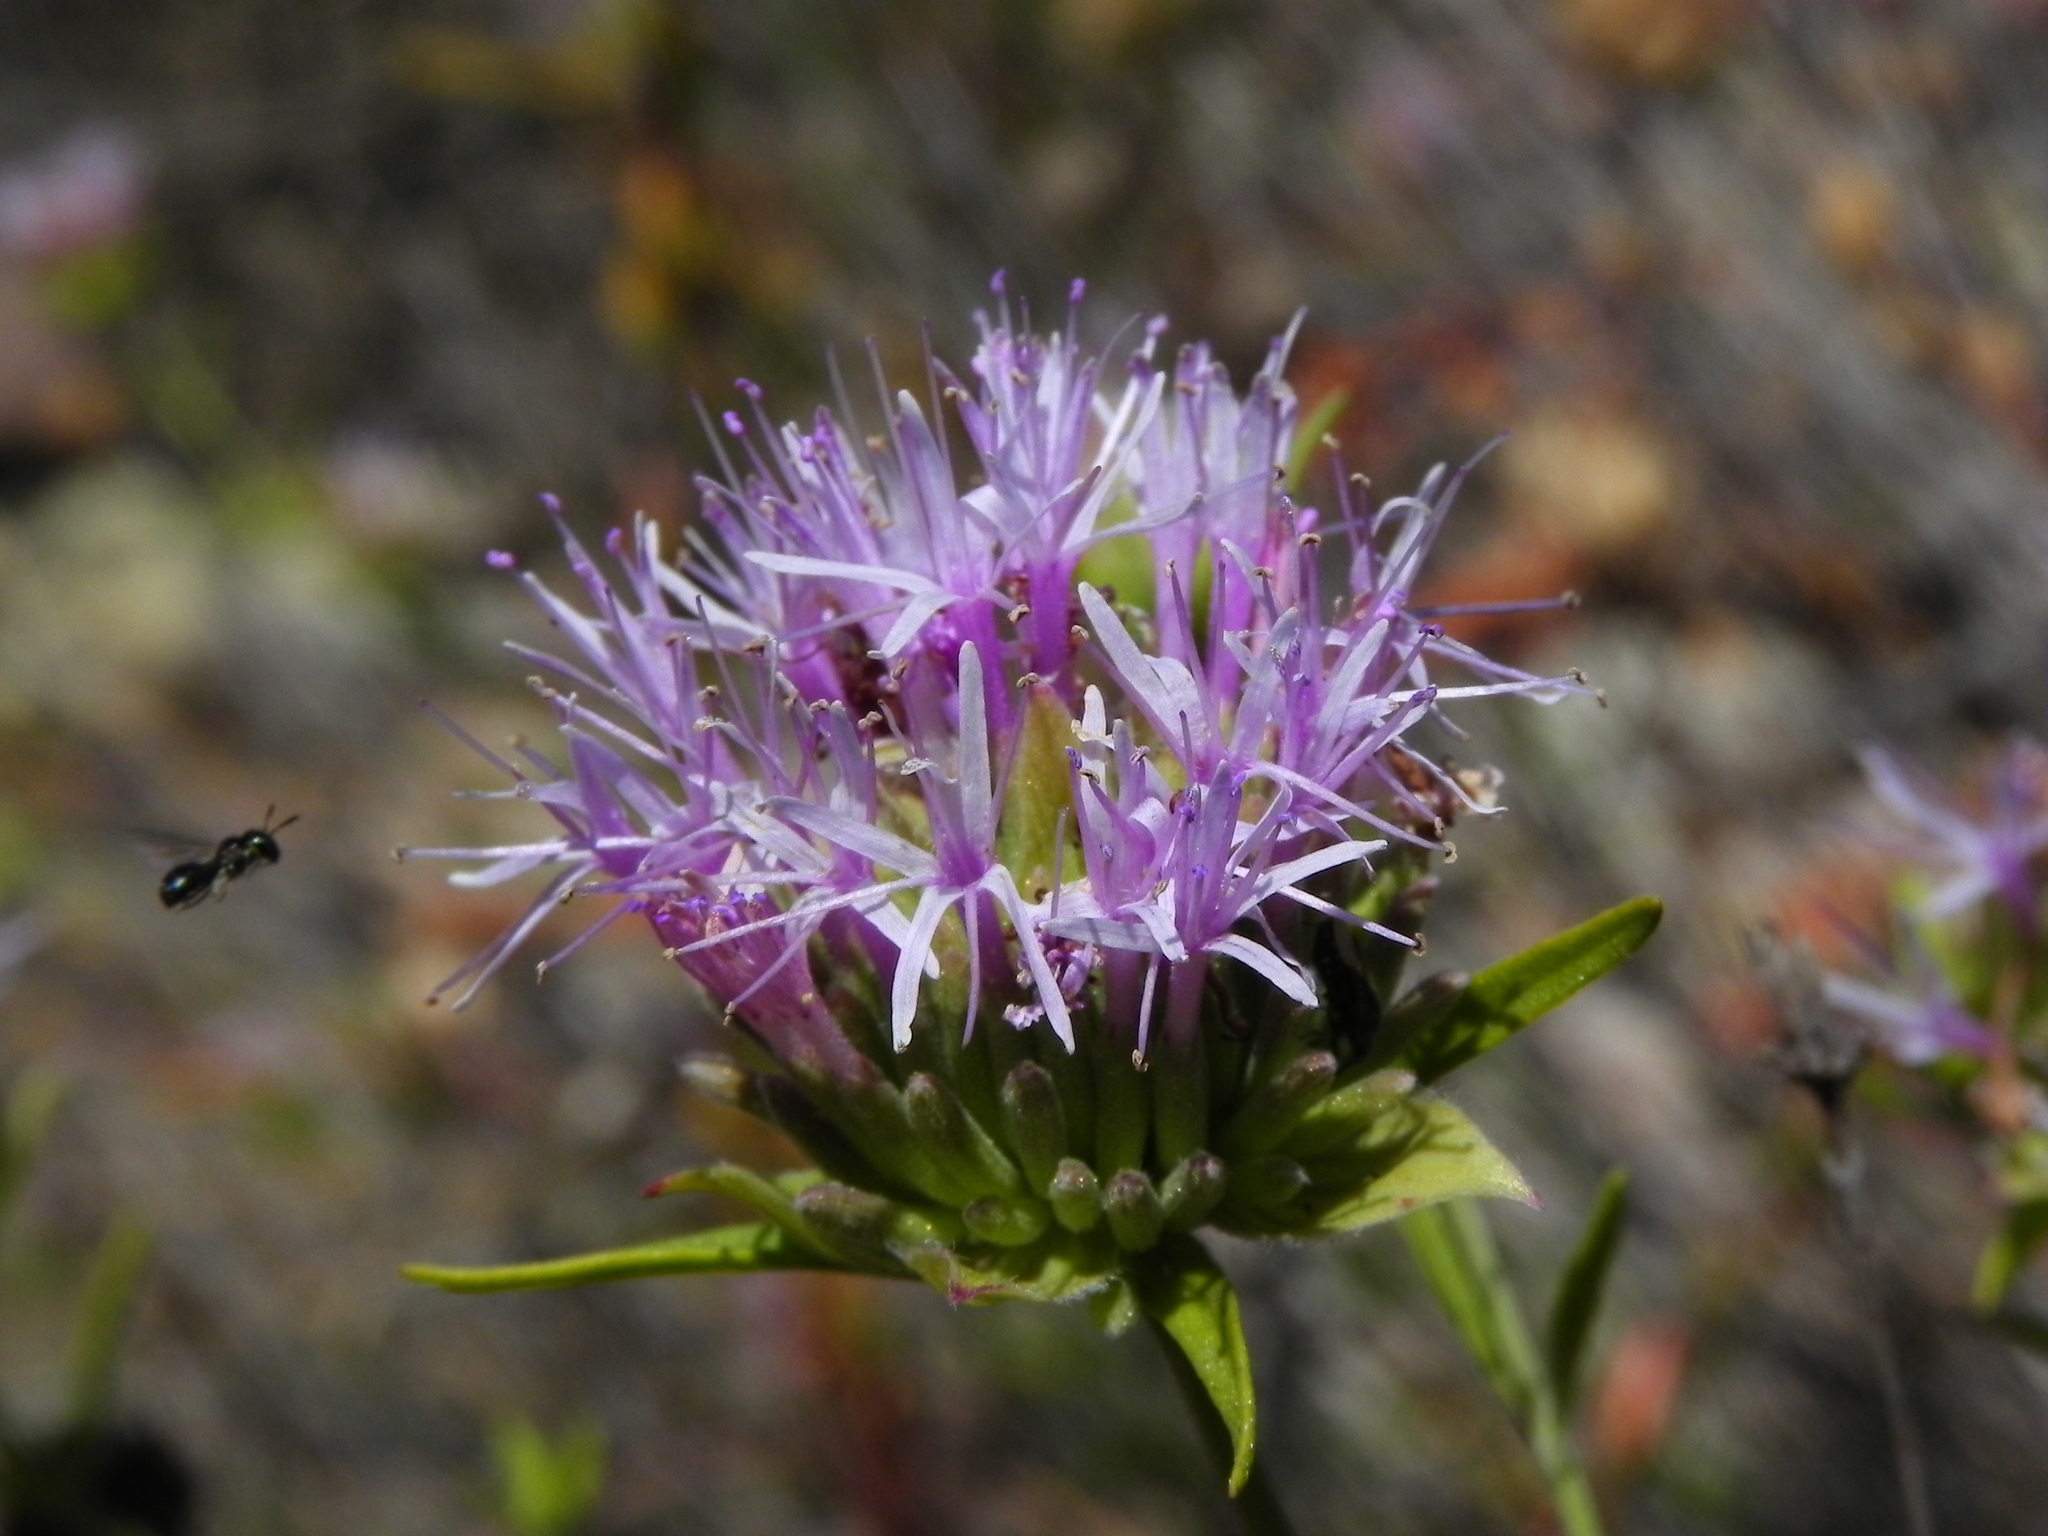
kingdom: Plantae
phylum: Tracheophyta
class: Magnoliopsida
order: Lamiales
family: Lamiaceae
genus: Monardella
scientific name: Monardella viminea
